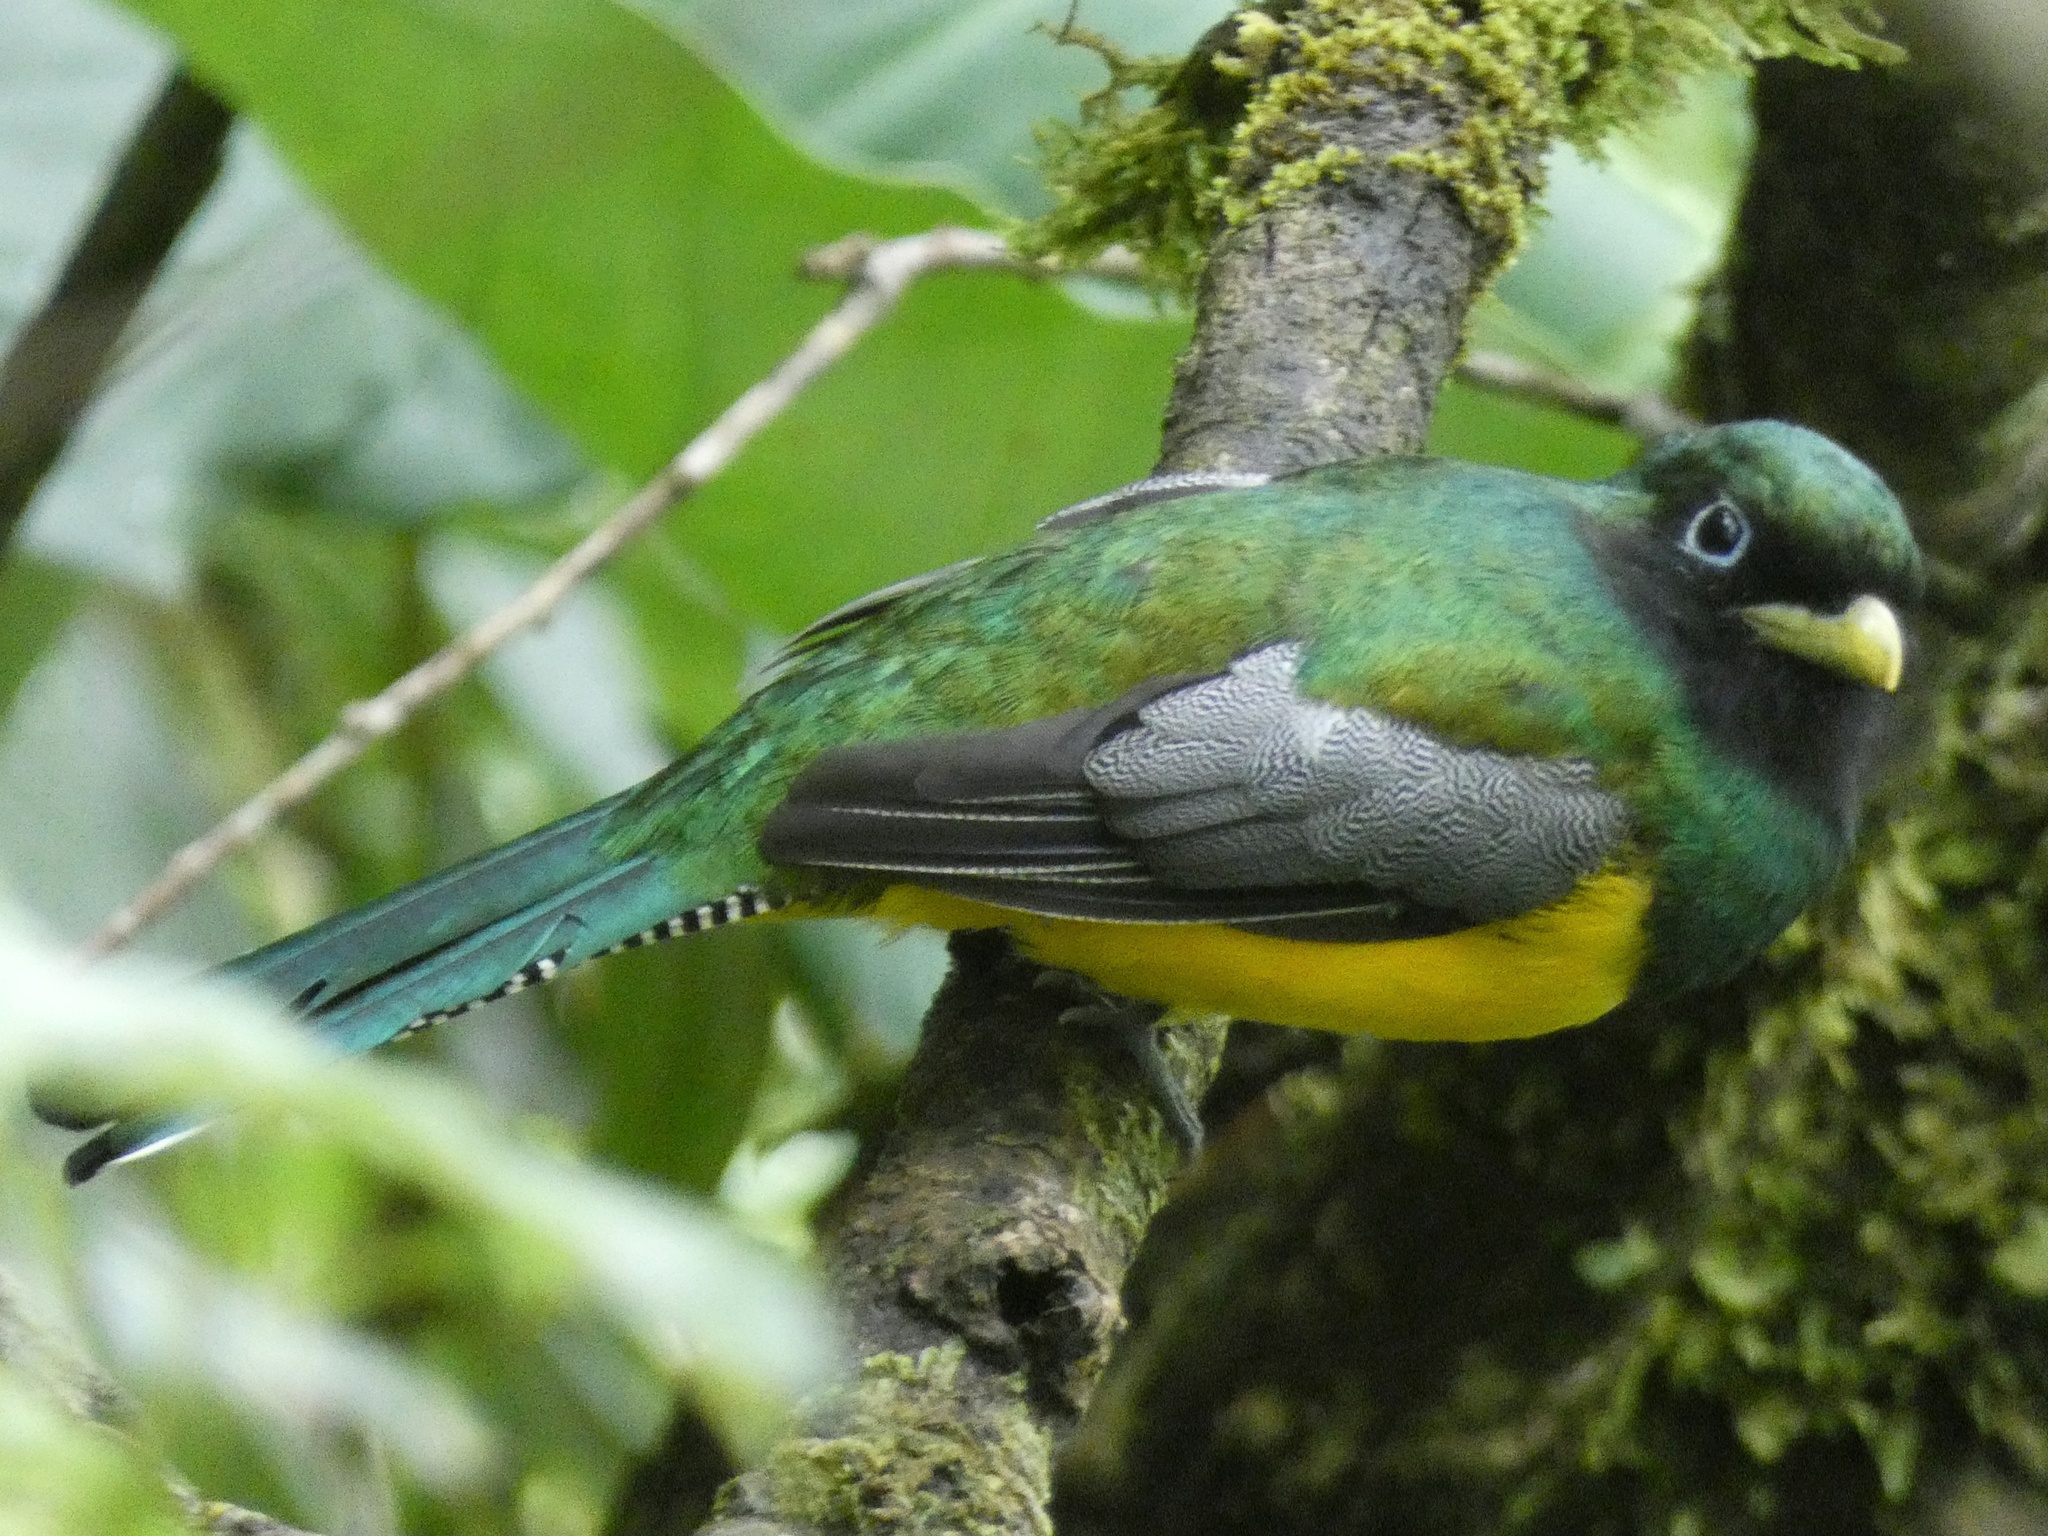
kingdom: Animalia
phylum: Chordata
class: Aves
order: Trogoniformes
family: Trogonidae
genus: Trogon
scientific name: Trogon rufus
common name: Black-throated trogon
